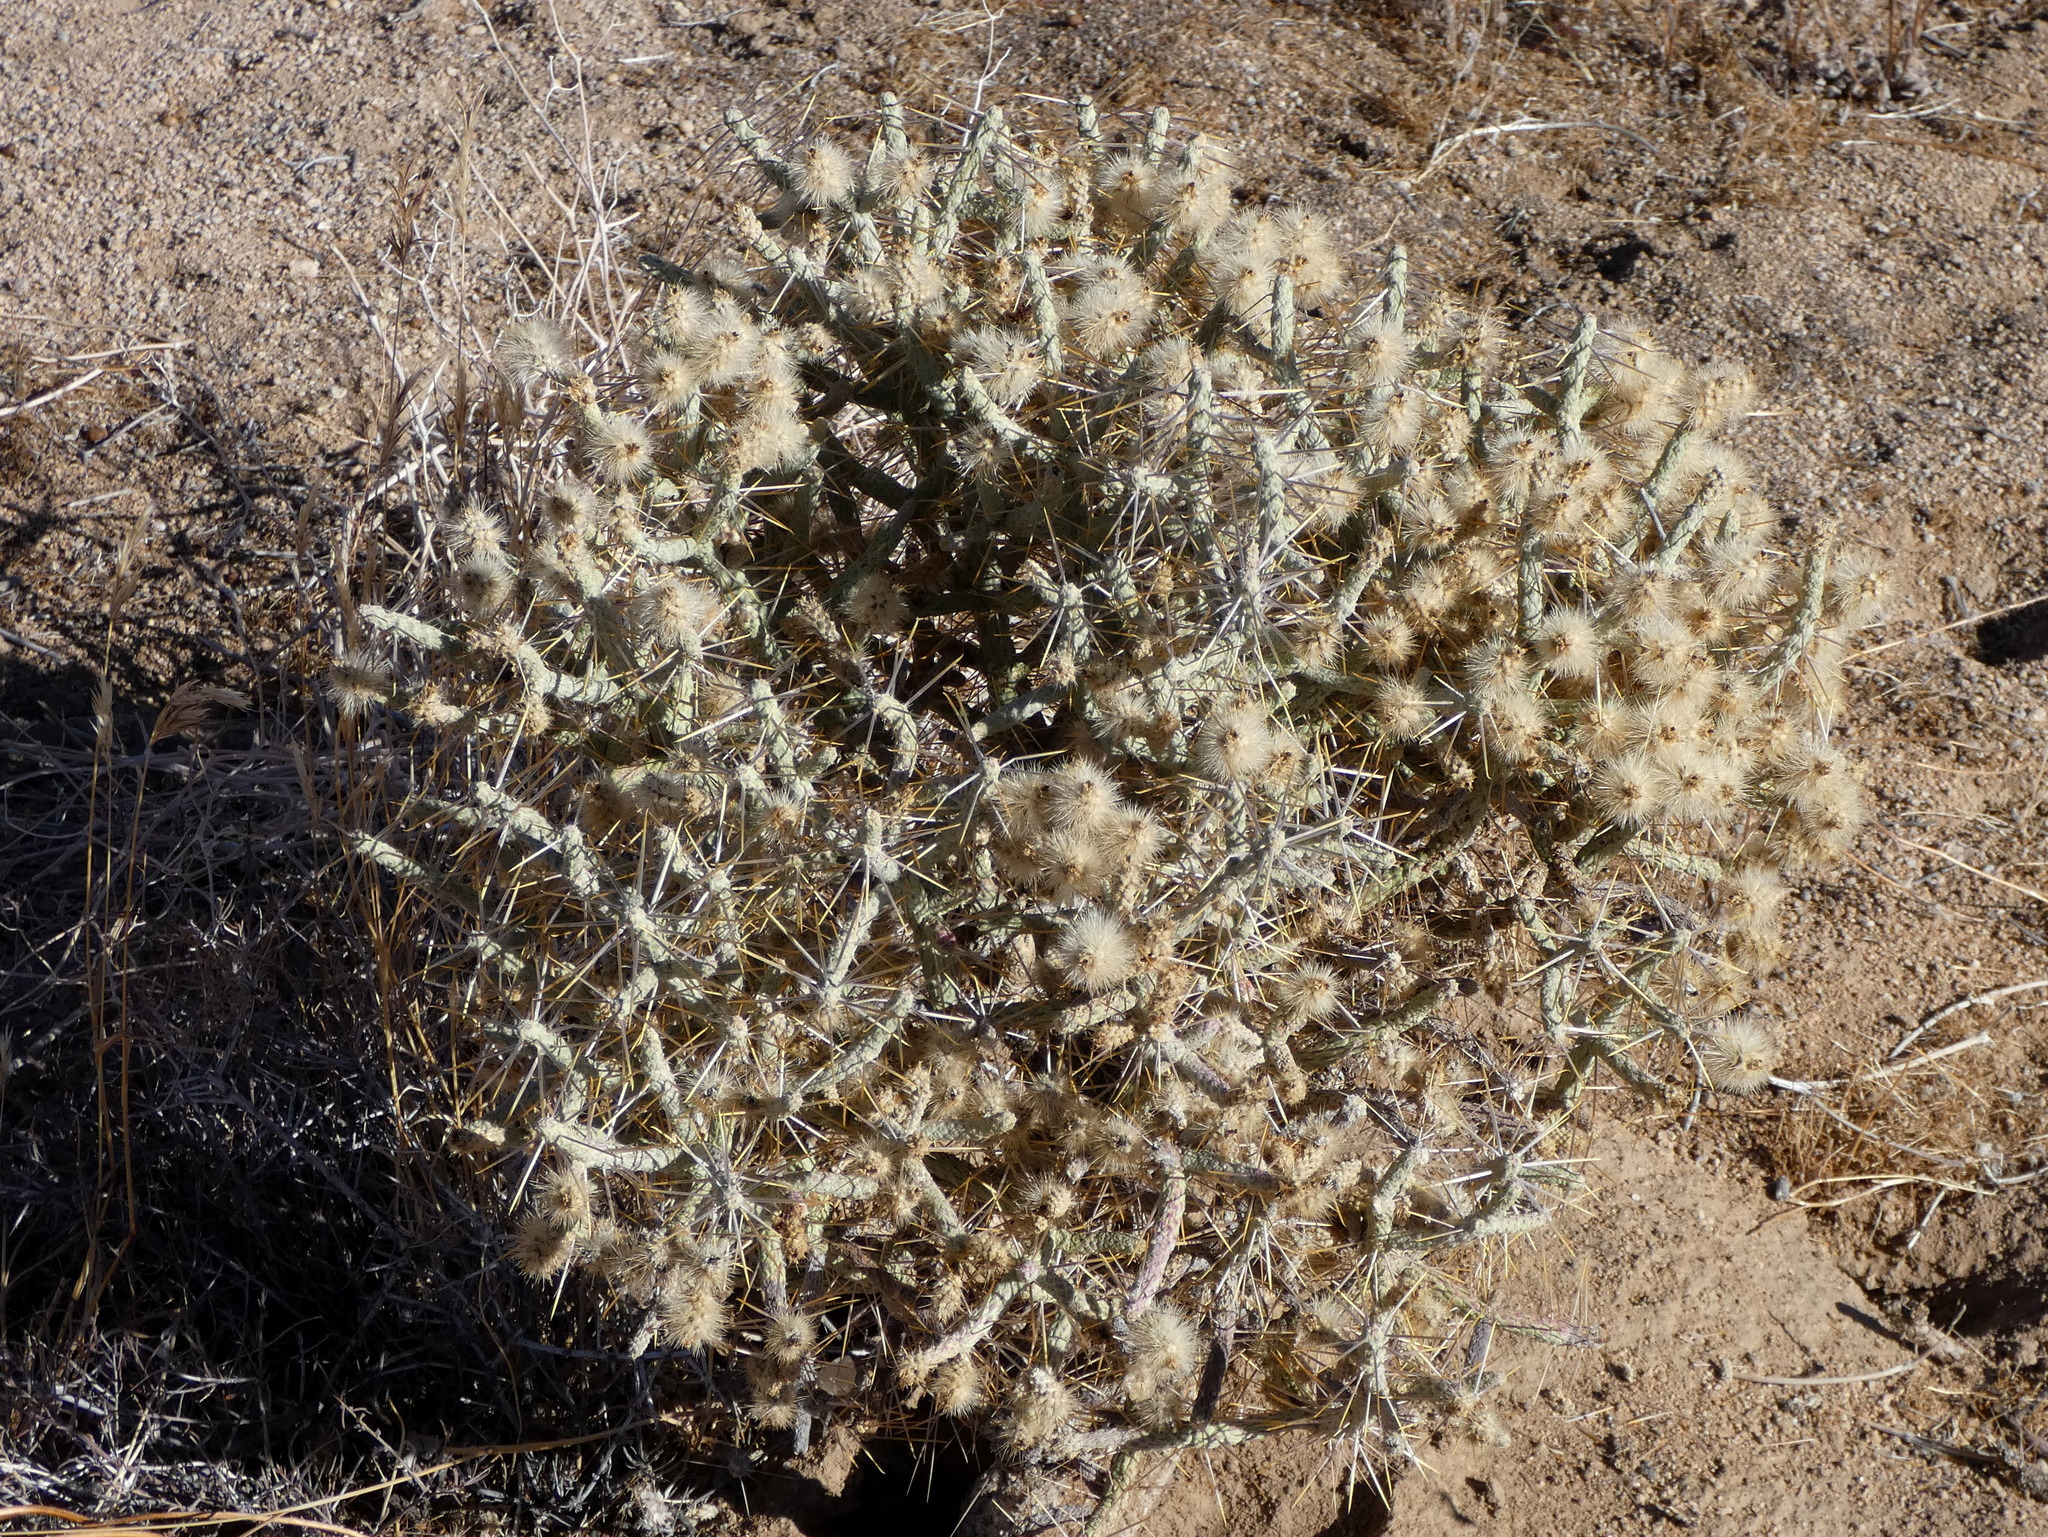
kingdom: Plantae
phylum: Tracheophyta
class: Magnoliopsida
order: Caryophyllales
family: Cactaceae
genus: Cylindropuntia
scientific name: Cylindropuntia ramosissima
